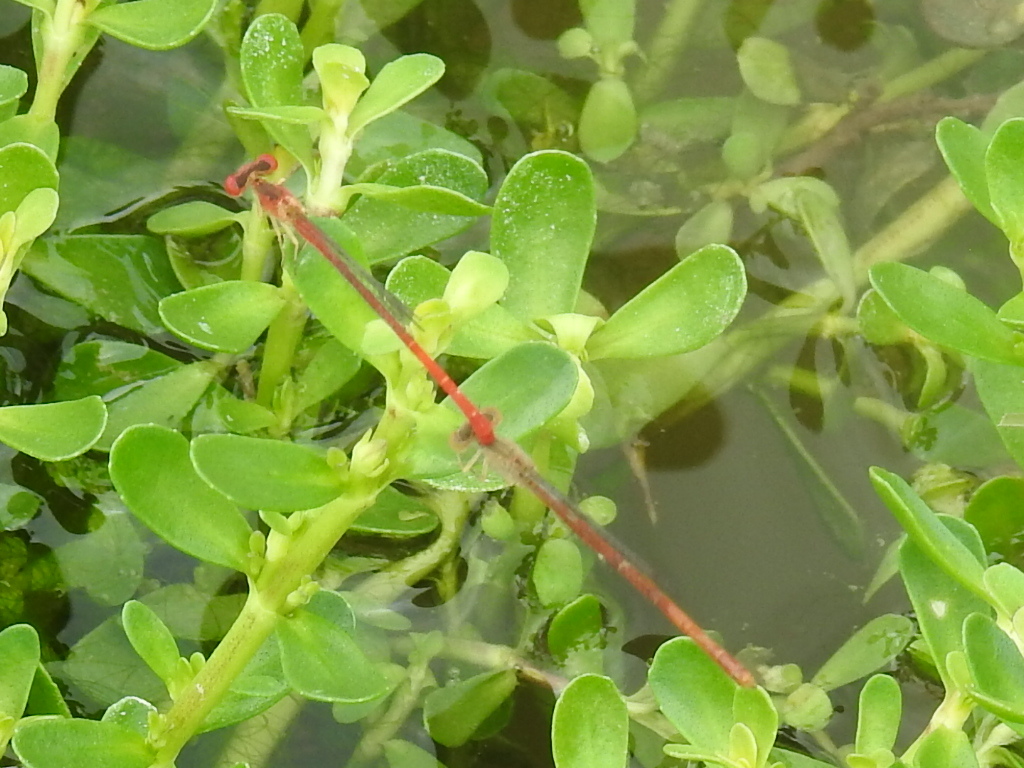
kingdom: Animalia
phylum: Arthropoda
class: Insecta
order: Odonata
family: Coenagrionidae
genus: Telebasis
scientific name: Telebasis salva
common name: Desert firetail
